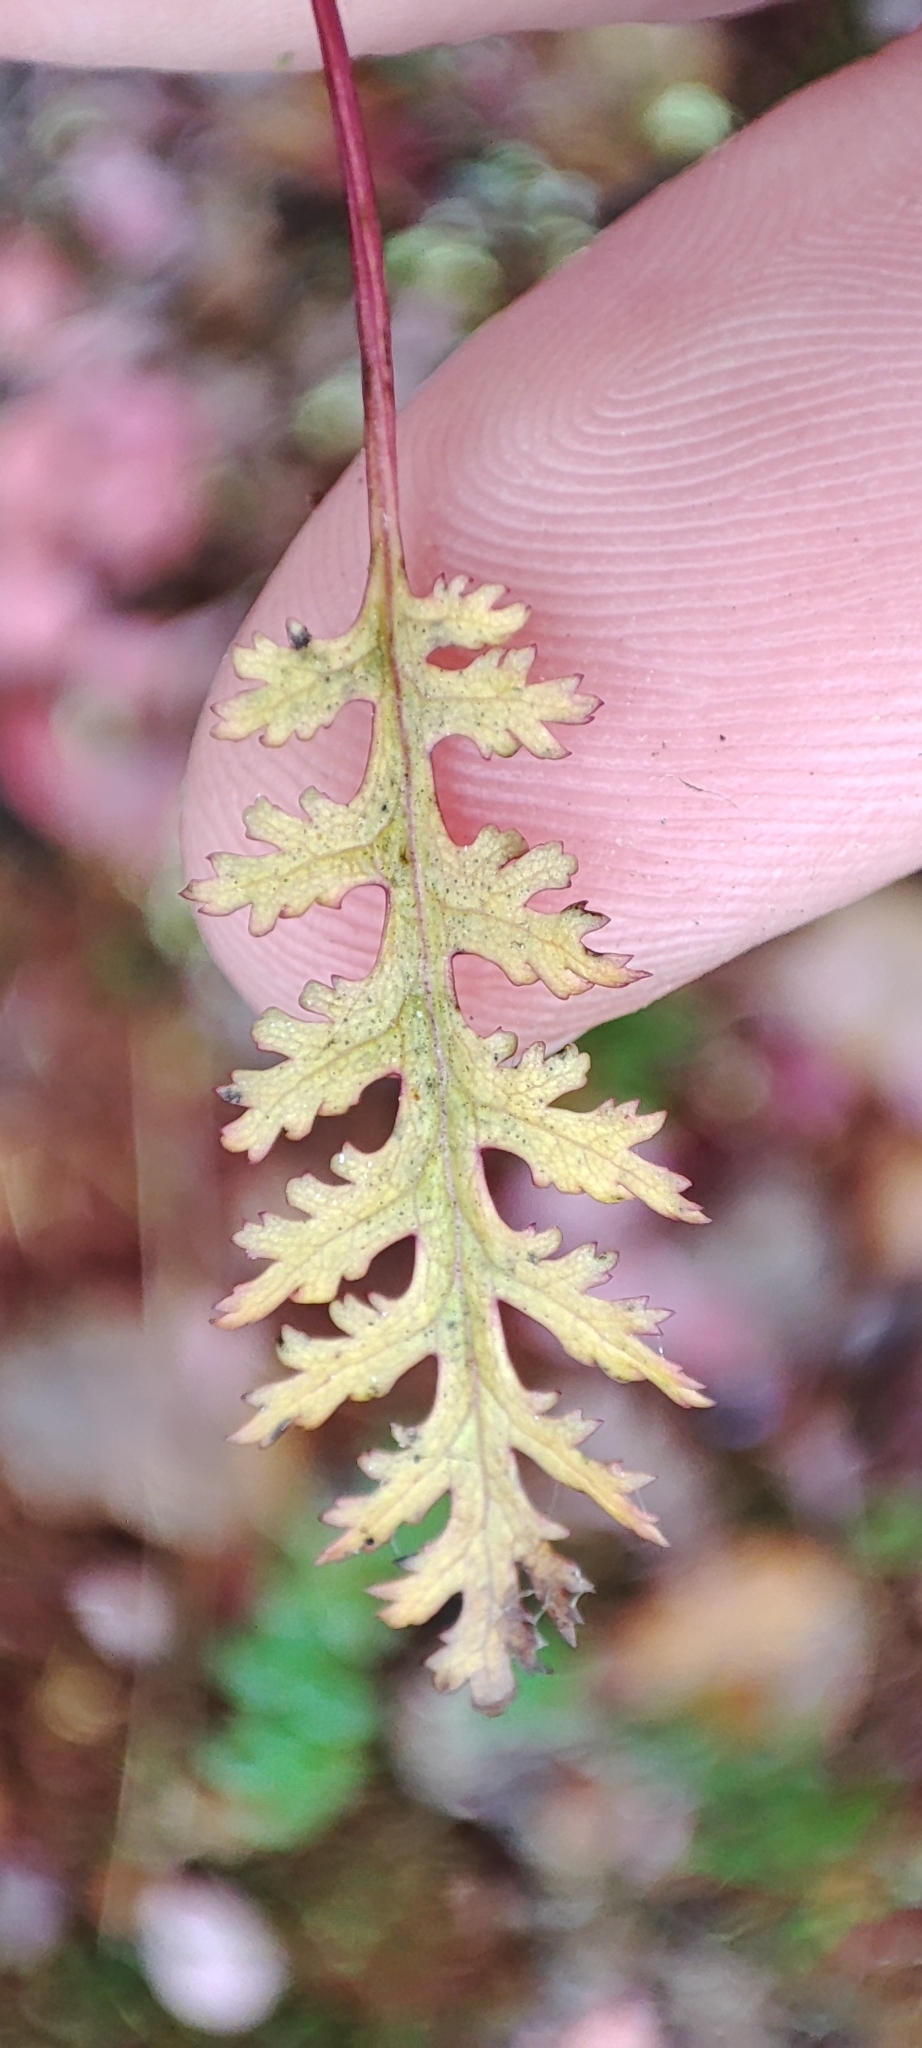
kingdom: Plantae
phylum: Tracheophyta
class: Magnoliopsida
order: Lamiales
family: Orobanchaceae
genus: Pedicularis
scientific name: Pedicularis labradorica
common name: Labrador lousewort
